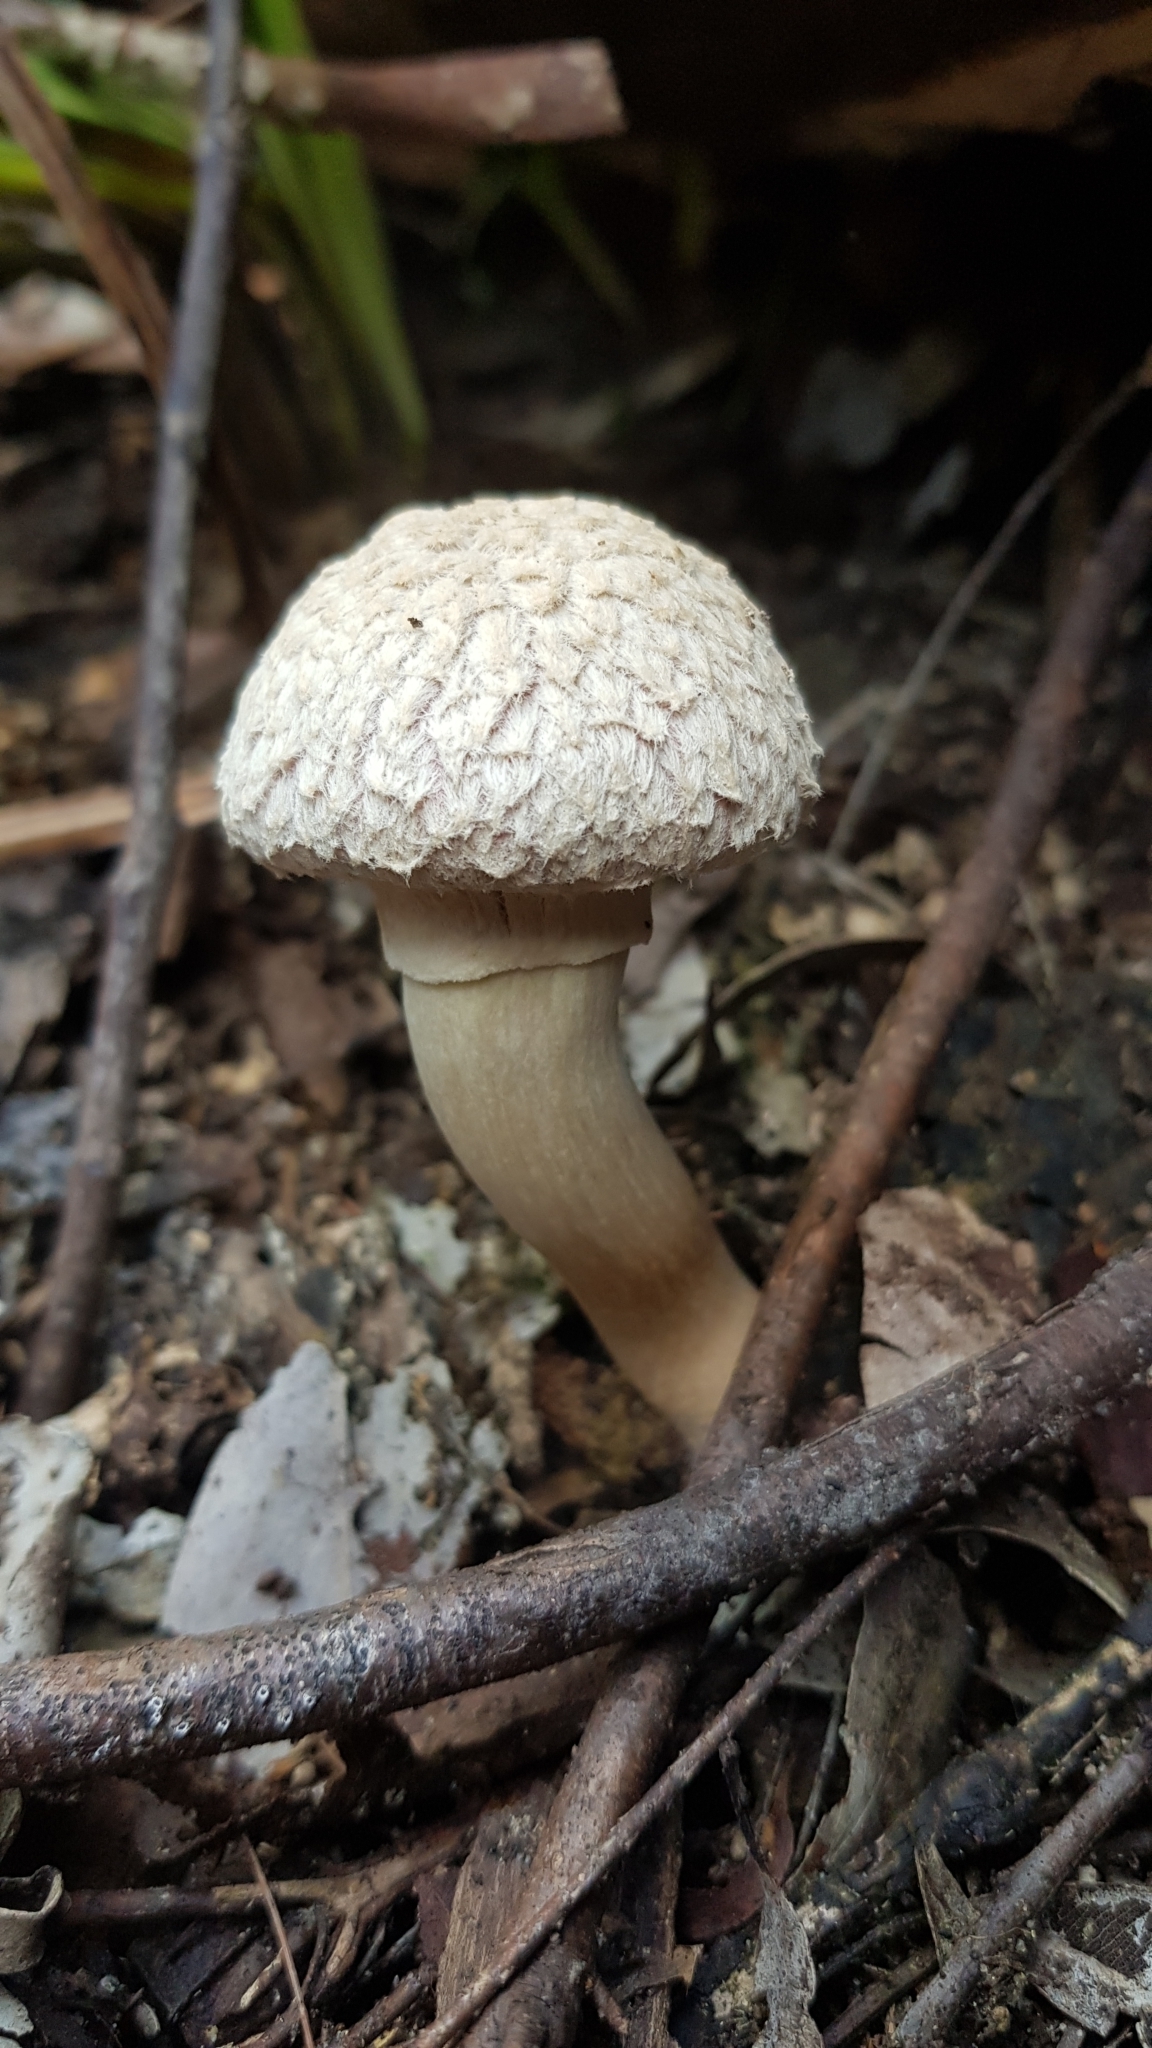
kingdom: Fungi
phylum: Basidiomycota
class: Agaricomycetes
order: Boletales
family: Boletaceae
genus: Boletellus
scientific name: Boletellus dissiliens
